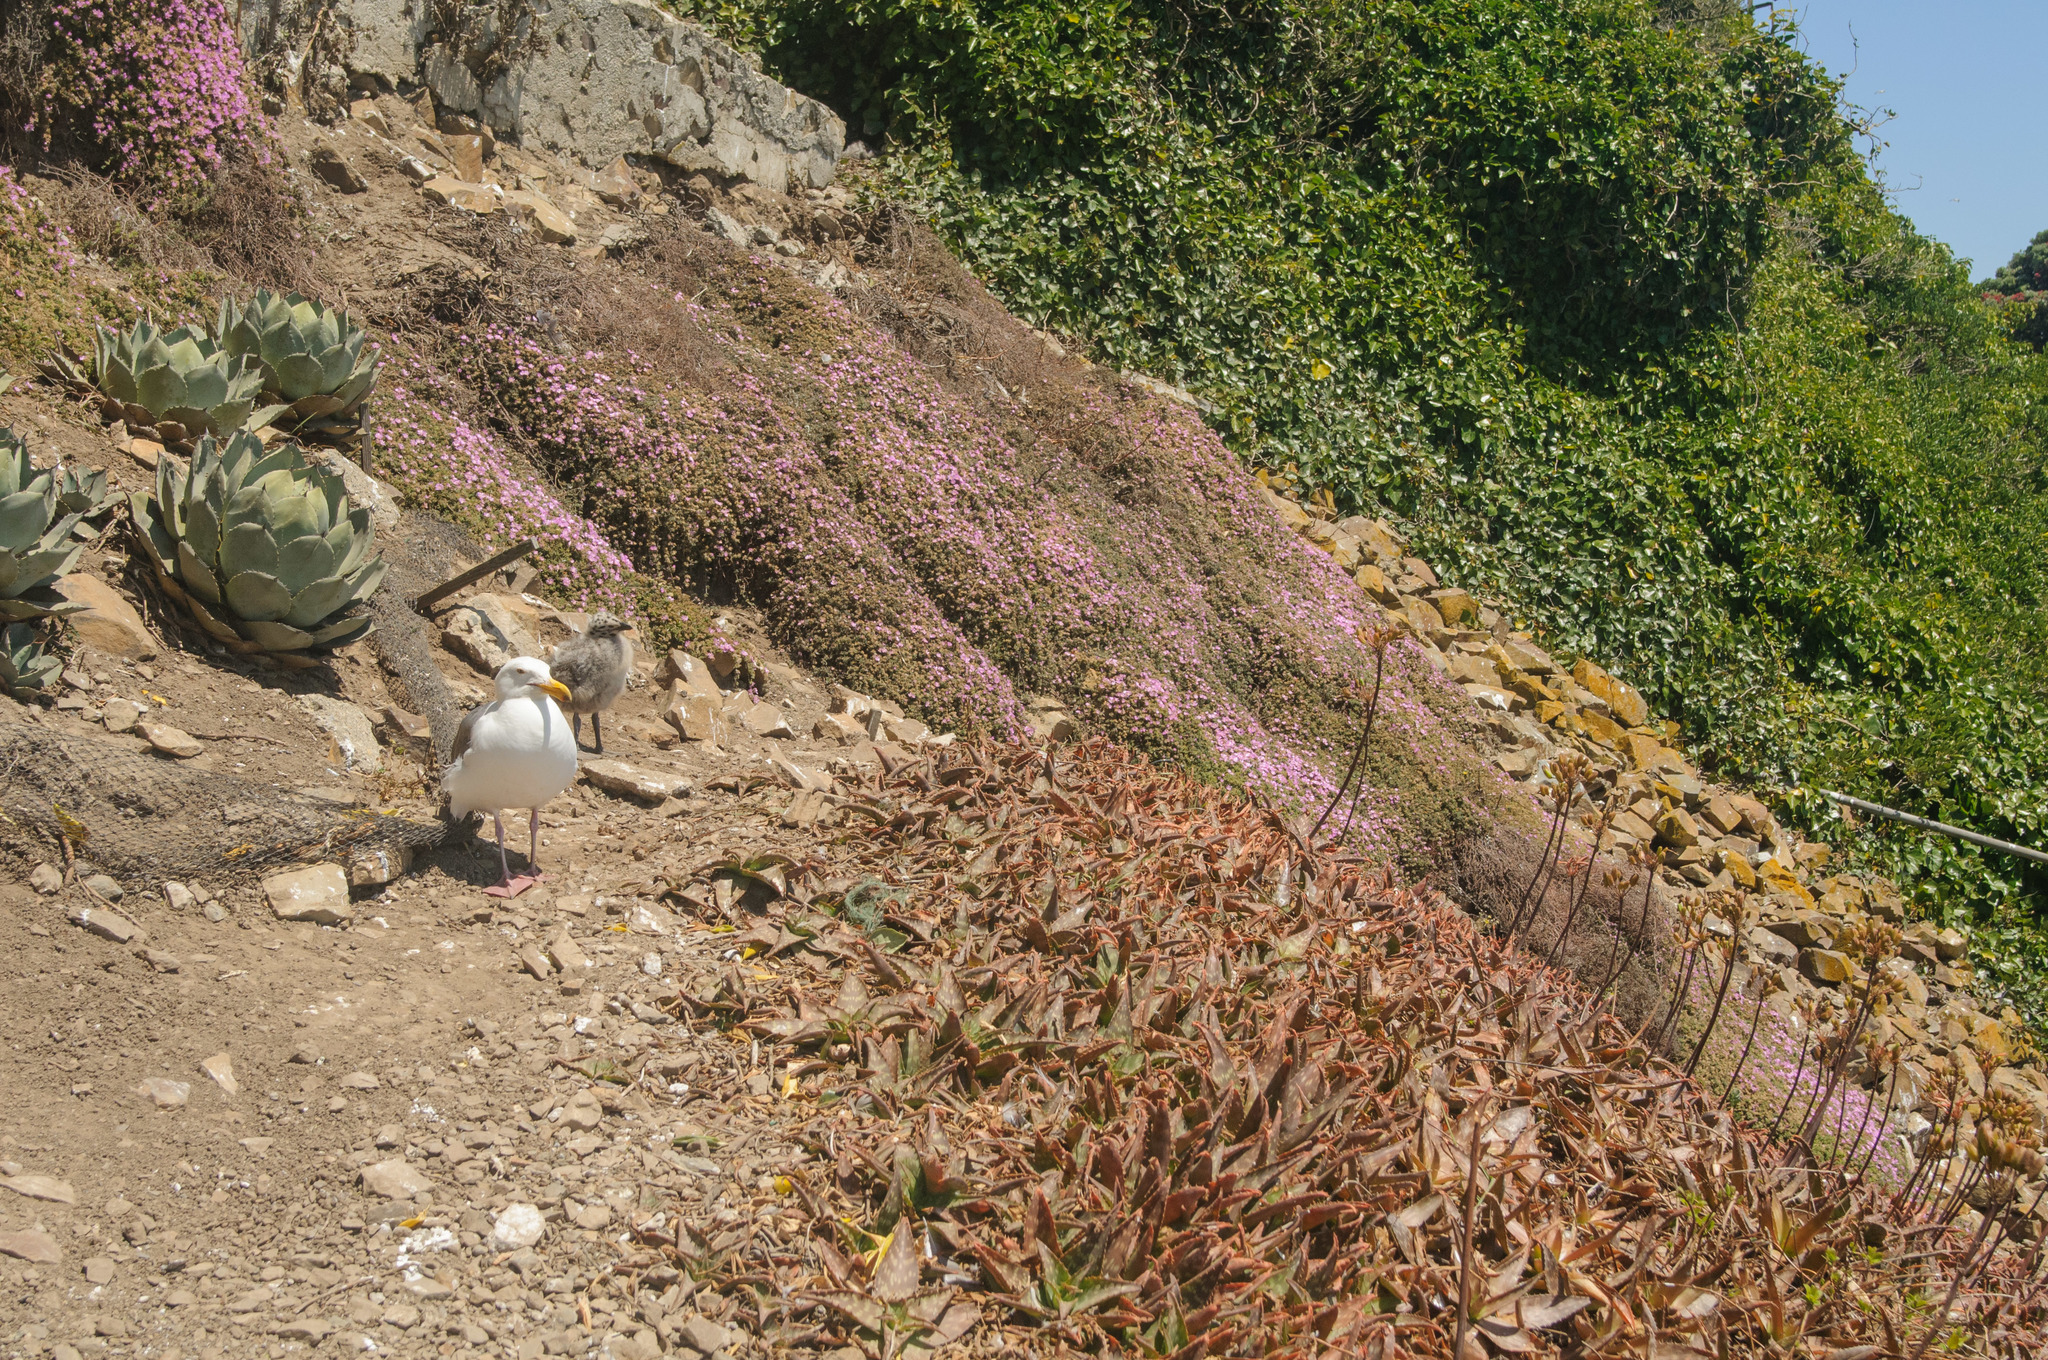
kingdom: Animalia
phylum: Chordata
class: Aves
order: Charadriiformes
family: Laridae
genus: Larus
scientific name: Larus occidentalis
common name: Western gull
